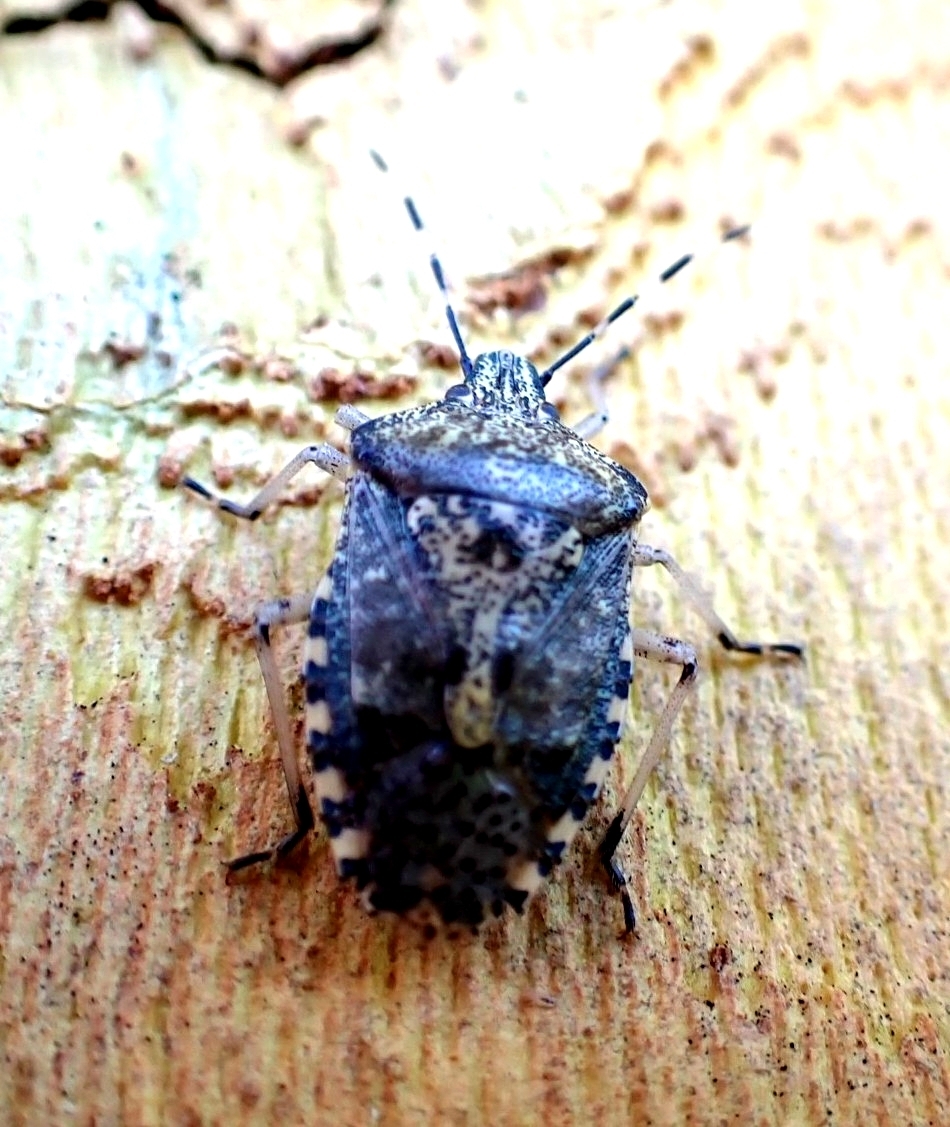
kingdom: Animalia
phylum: Arthropoda
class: Insecta
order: Hemiptera
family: Pentatomidae
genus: Rhaphigaster
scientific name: Rhaphigaster nebulosa
